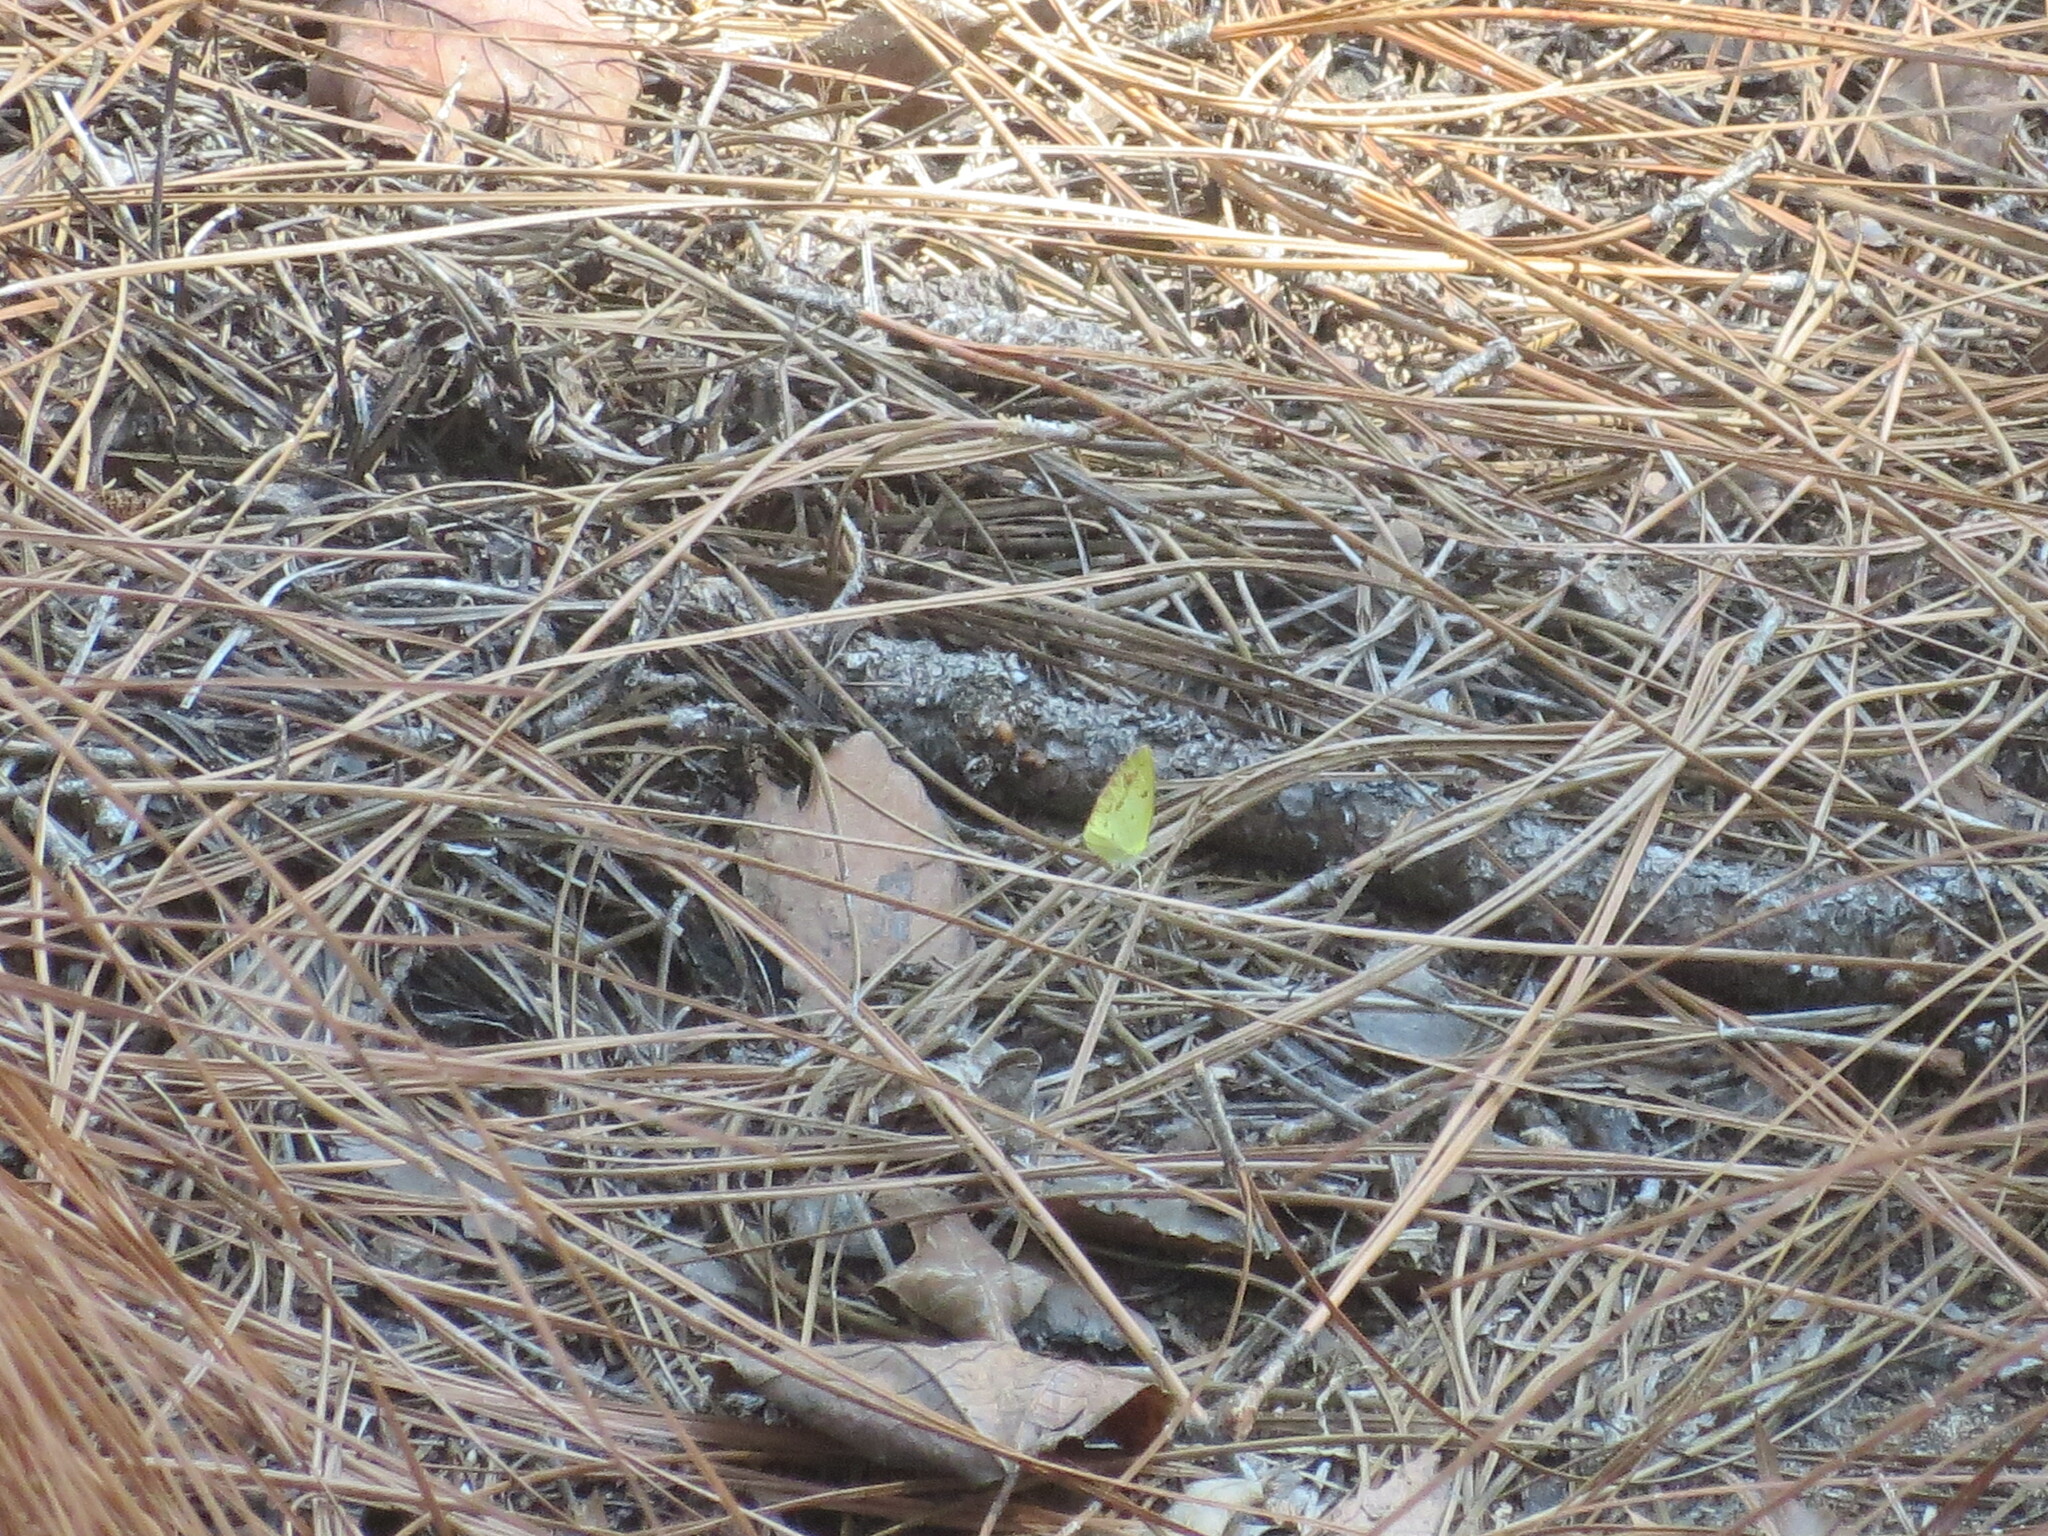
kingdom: Animalia
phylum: Arthropoda
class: Insecta
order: Lepidoptera
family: Pieridae
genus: Pyrisitia
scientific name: Pyrisitia lisa
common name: Little yellow
